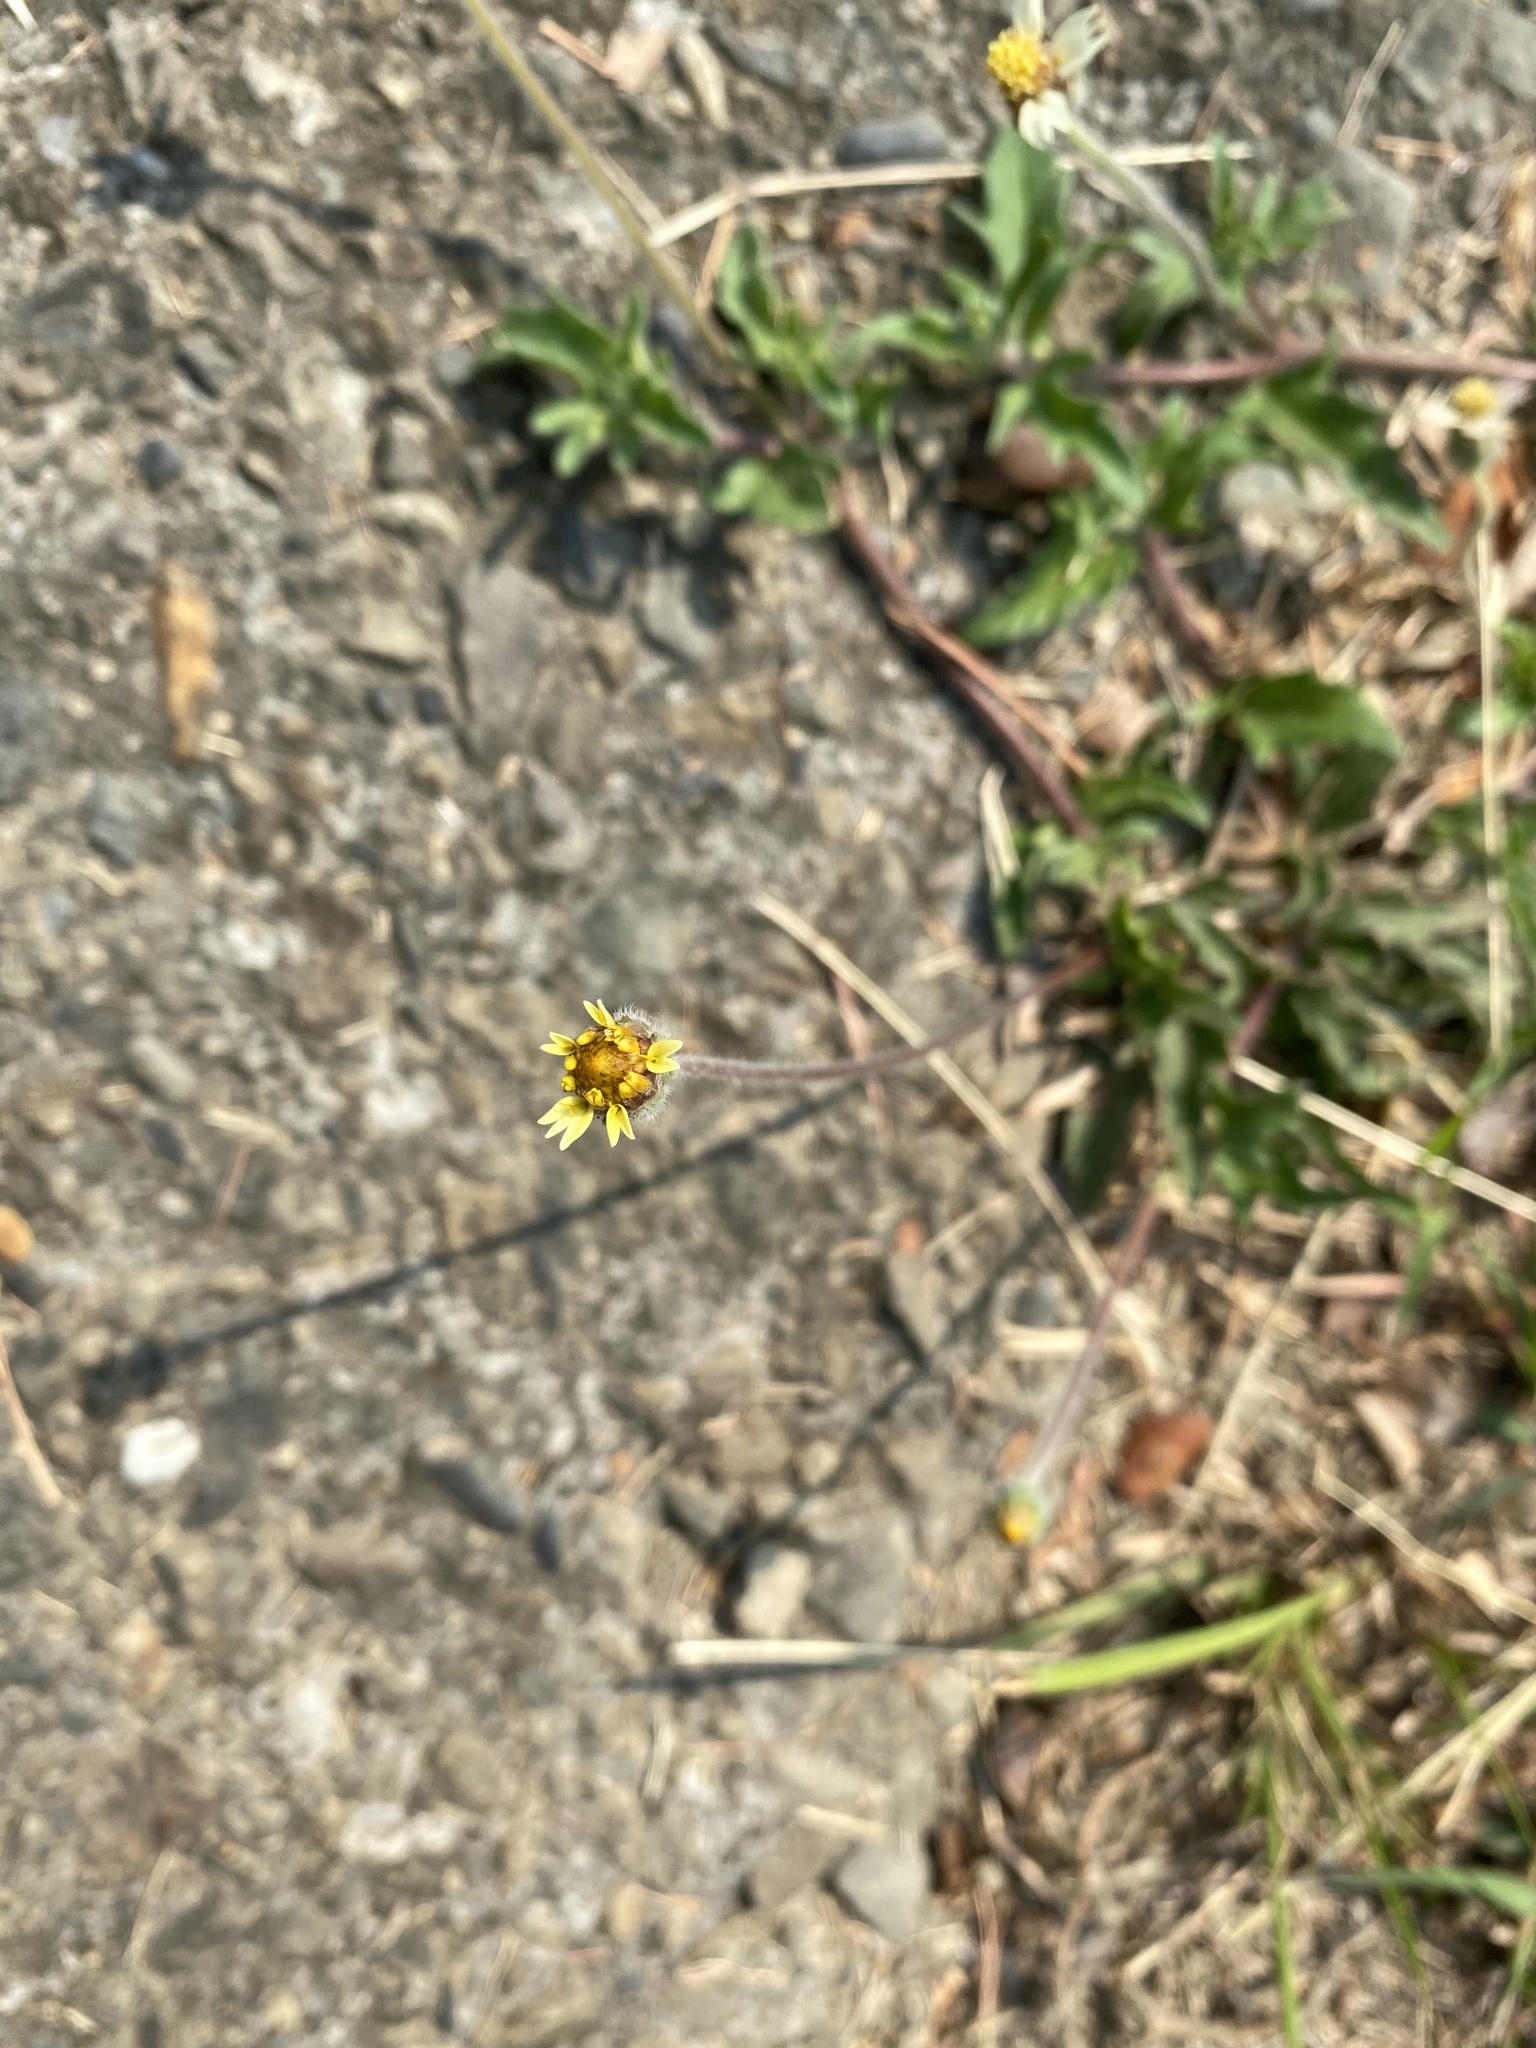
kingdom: Plantae
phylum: Tracheophyta
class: Magnoliopsida
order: Asterales
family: Asteraceae
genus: Tridax
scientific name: Tridax procumbens
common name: Coatbuttons
